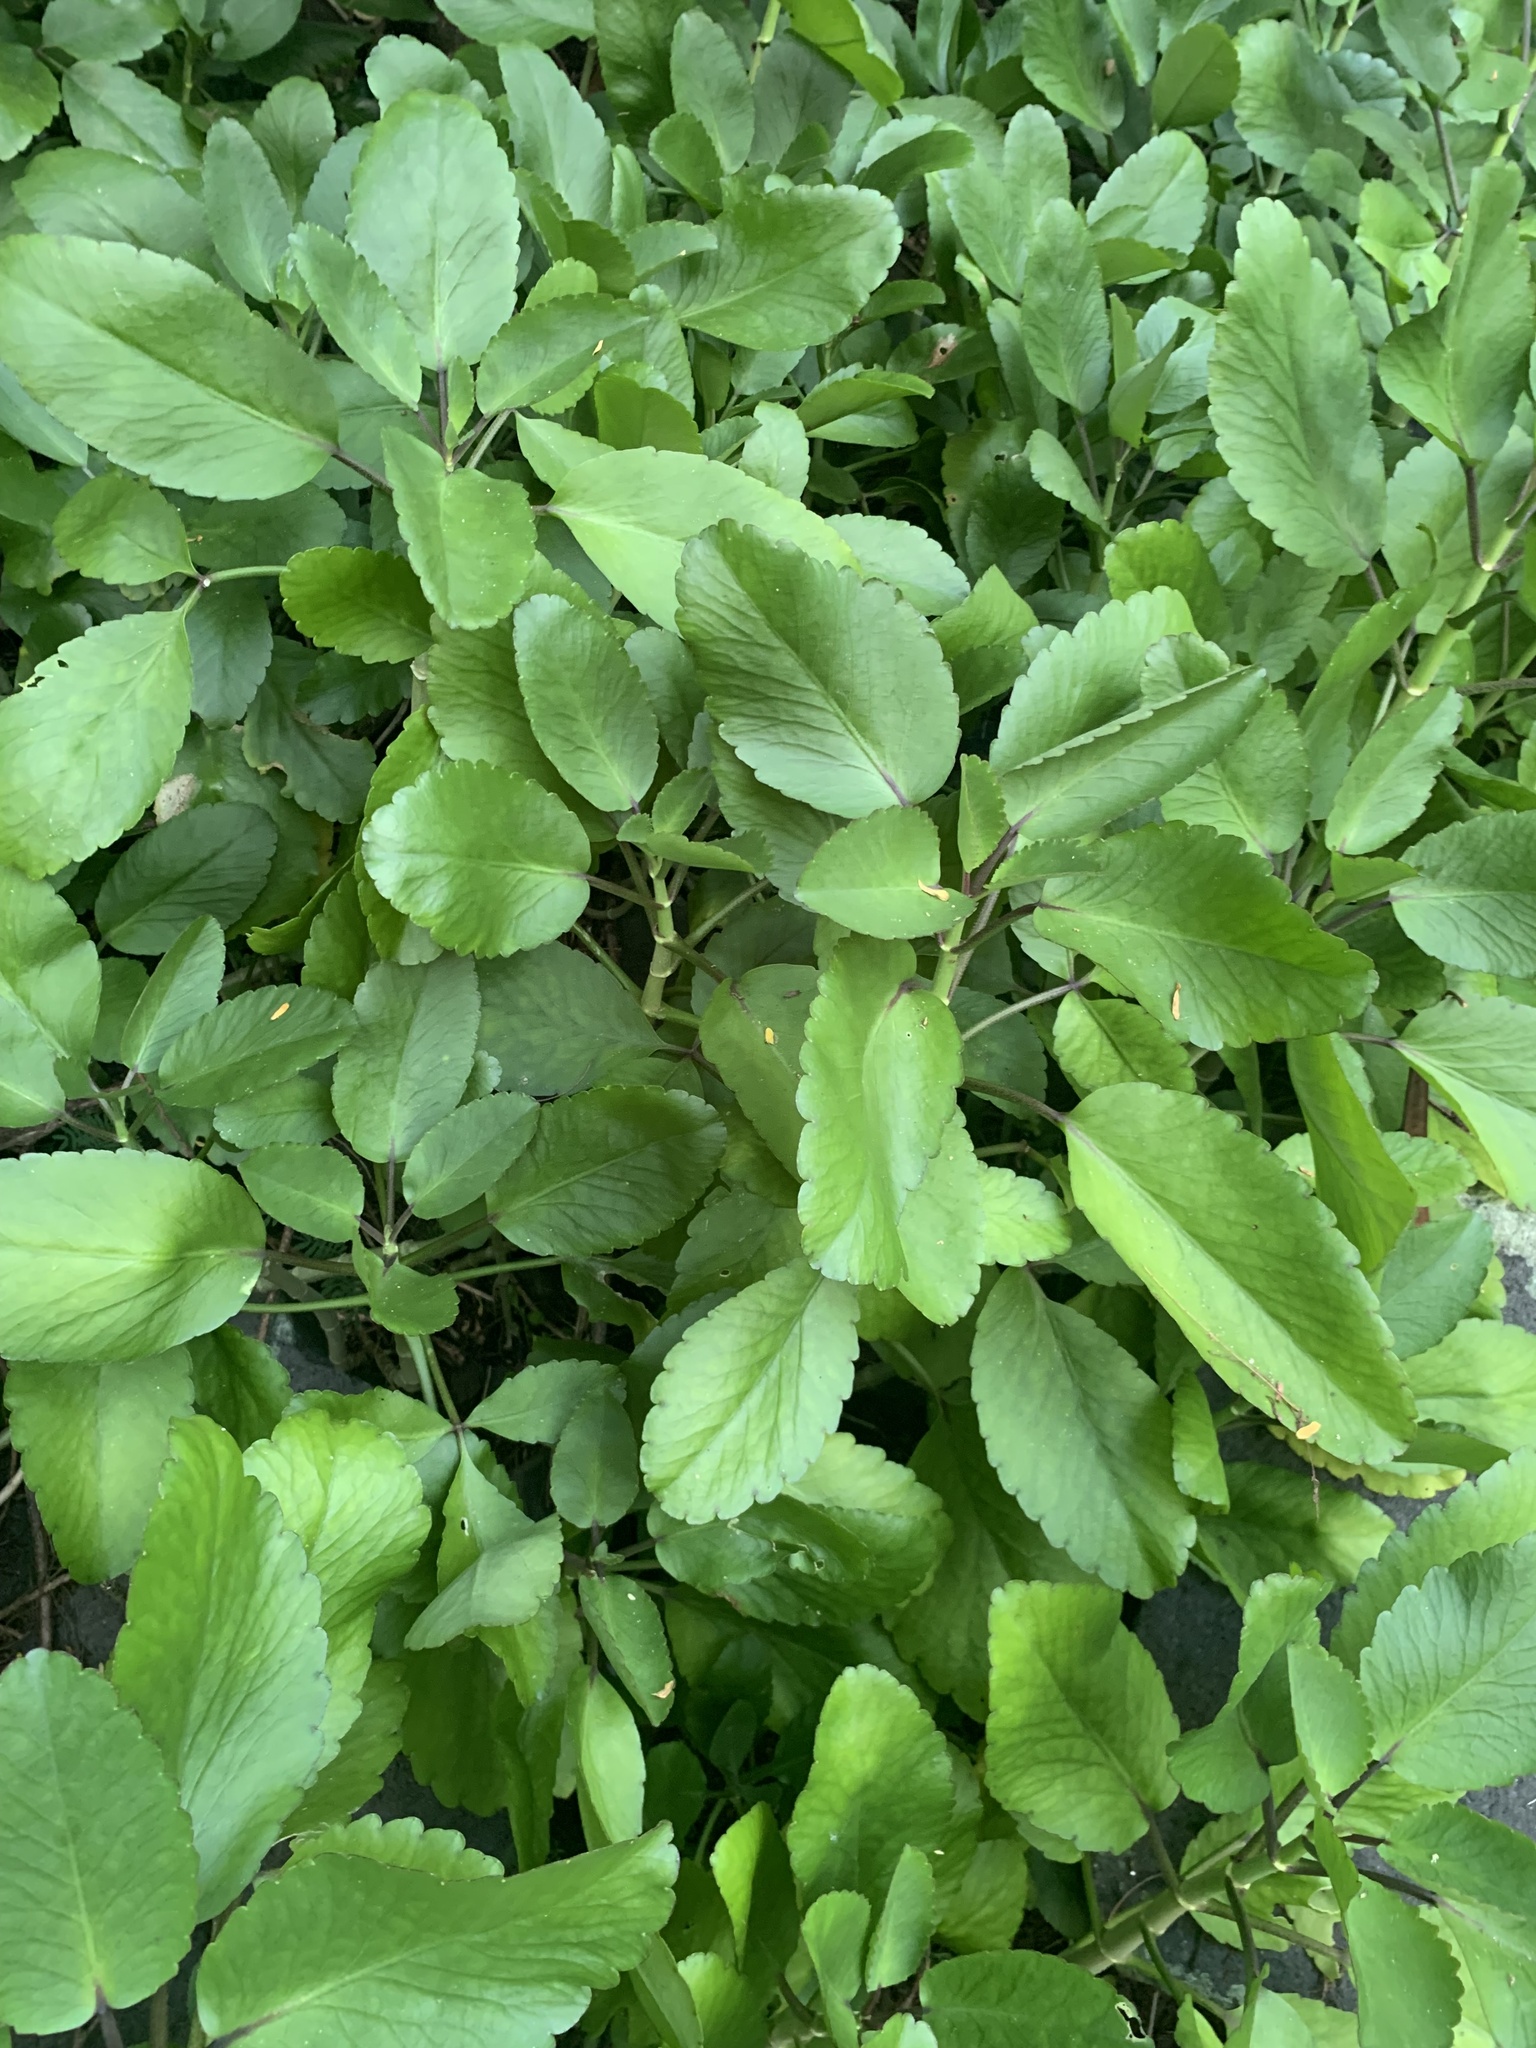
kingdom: Plantae
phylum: Tracheophyta
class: Magnoliopsida
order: Saxifragales
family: Crassulaceae
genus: Kalanchoe
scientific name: Kalanchoe pinnata
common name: Cathedral bells
